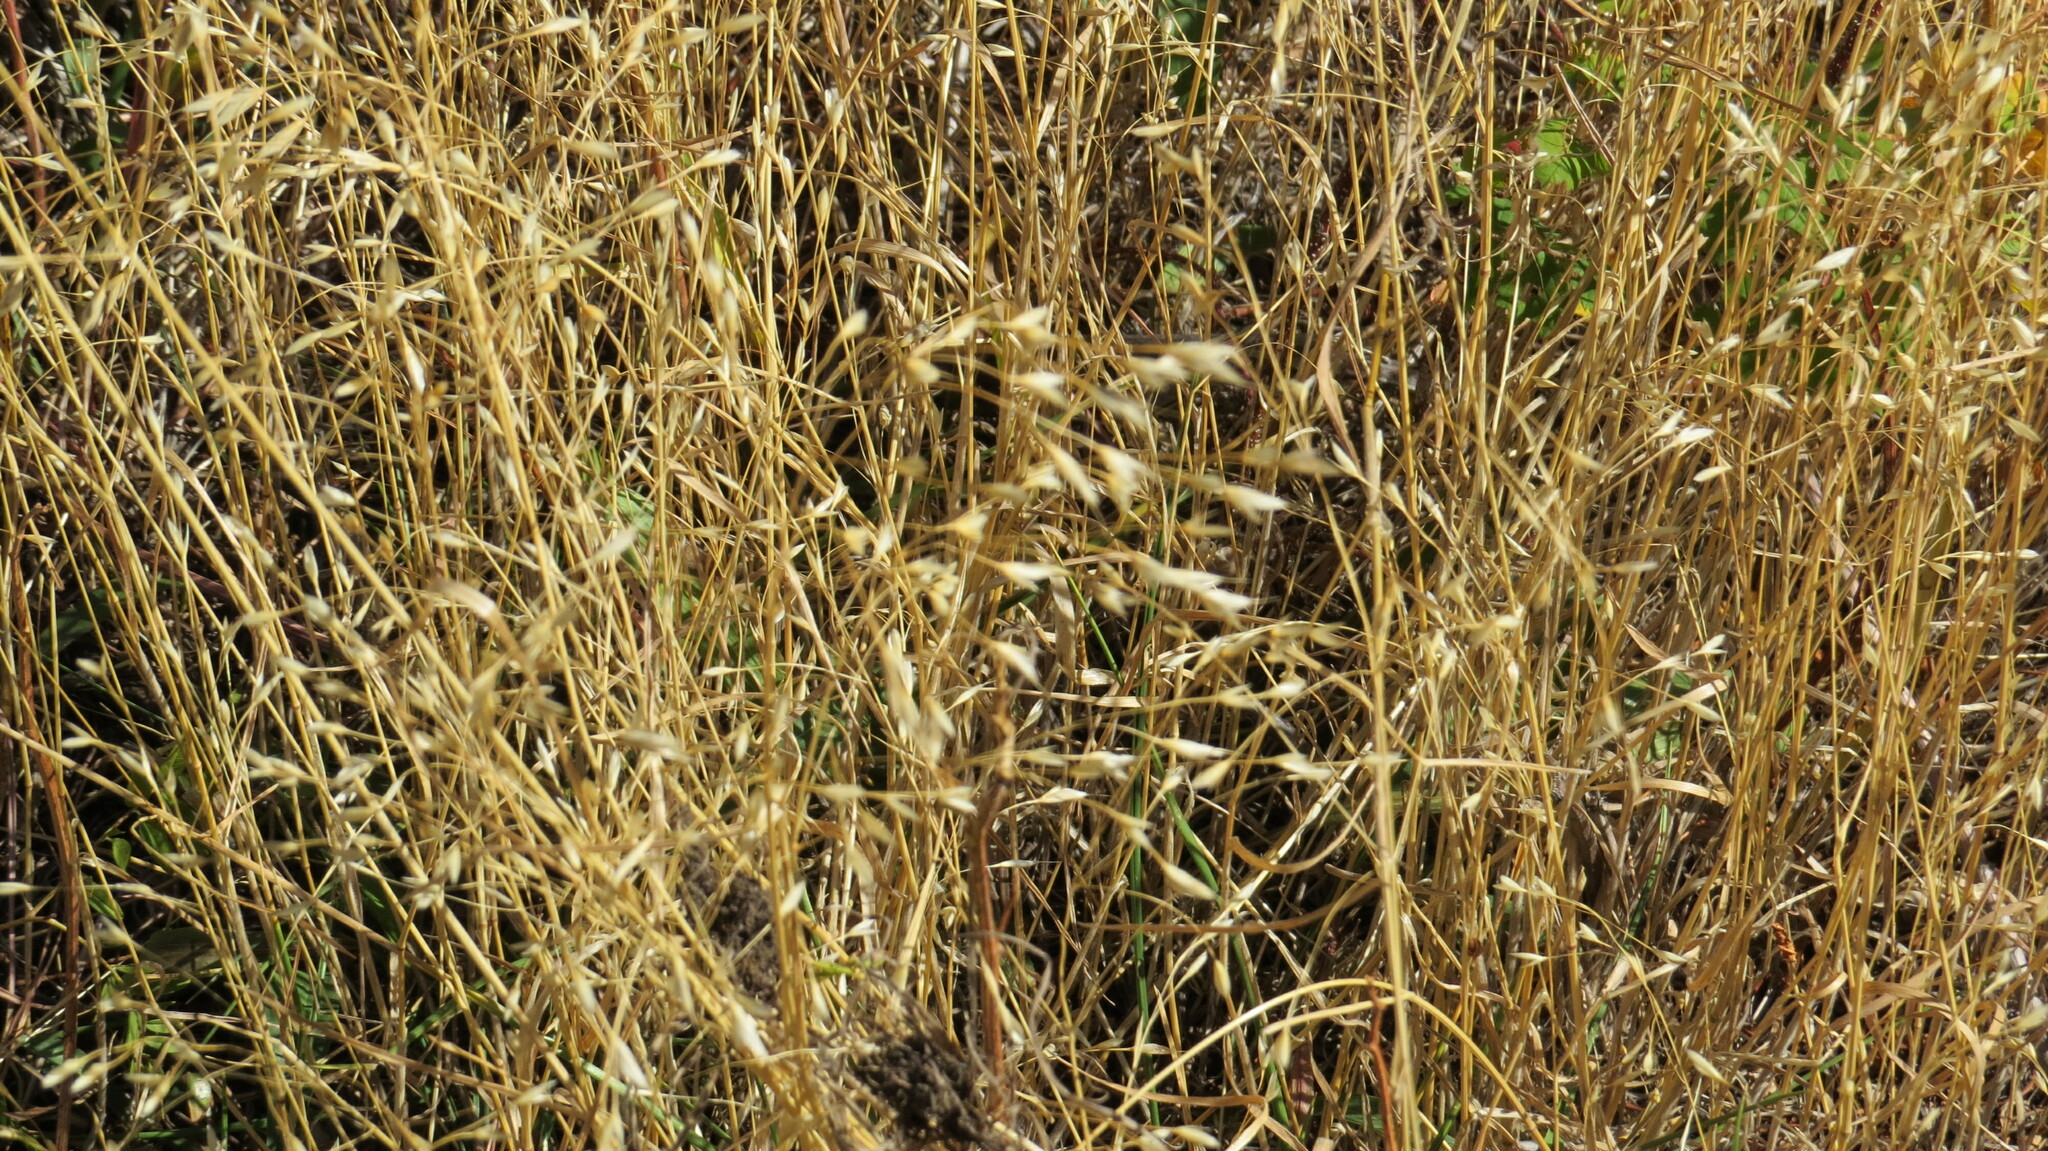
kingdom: Plantae
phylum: Tracheophyta
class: Liliopsida
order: Poales
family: Poaceae
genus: Bromus
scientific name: Bromus japonicus
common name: Japanese brome
